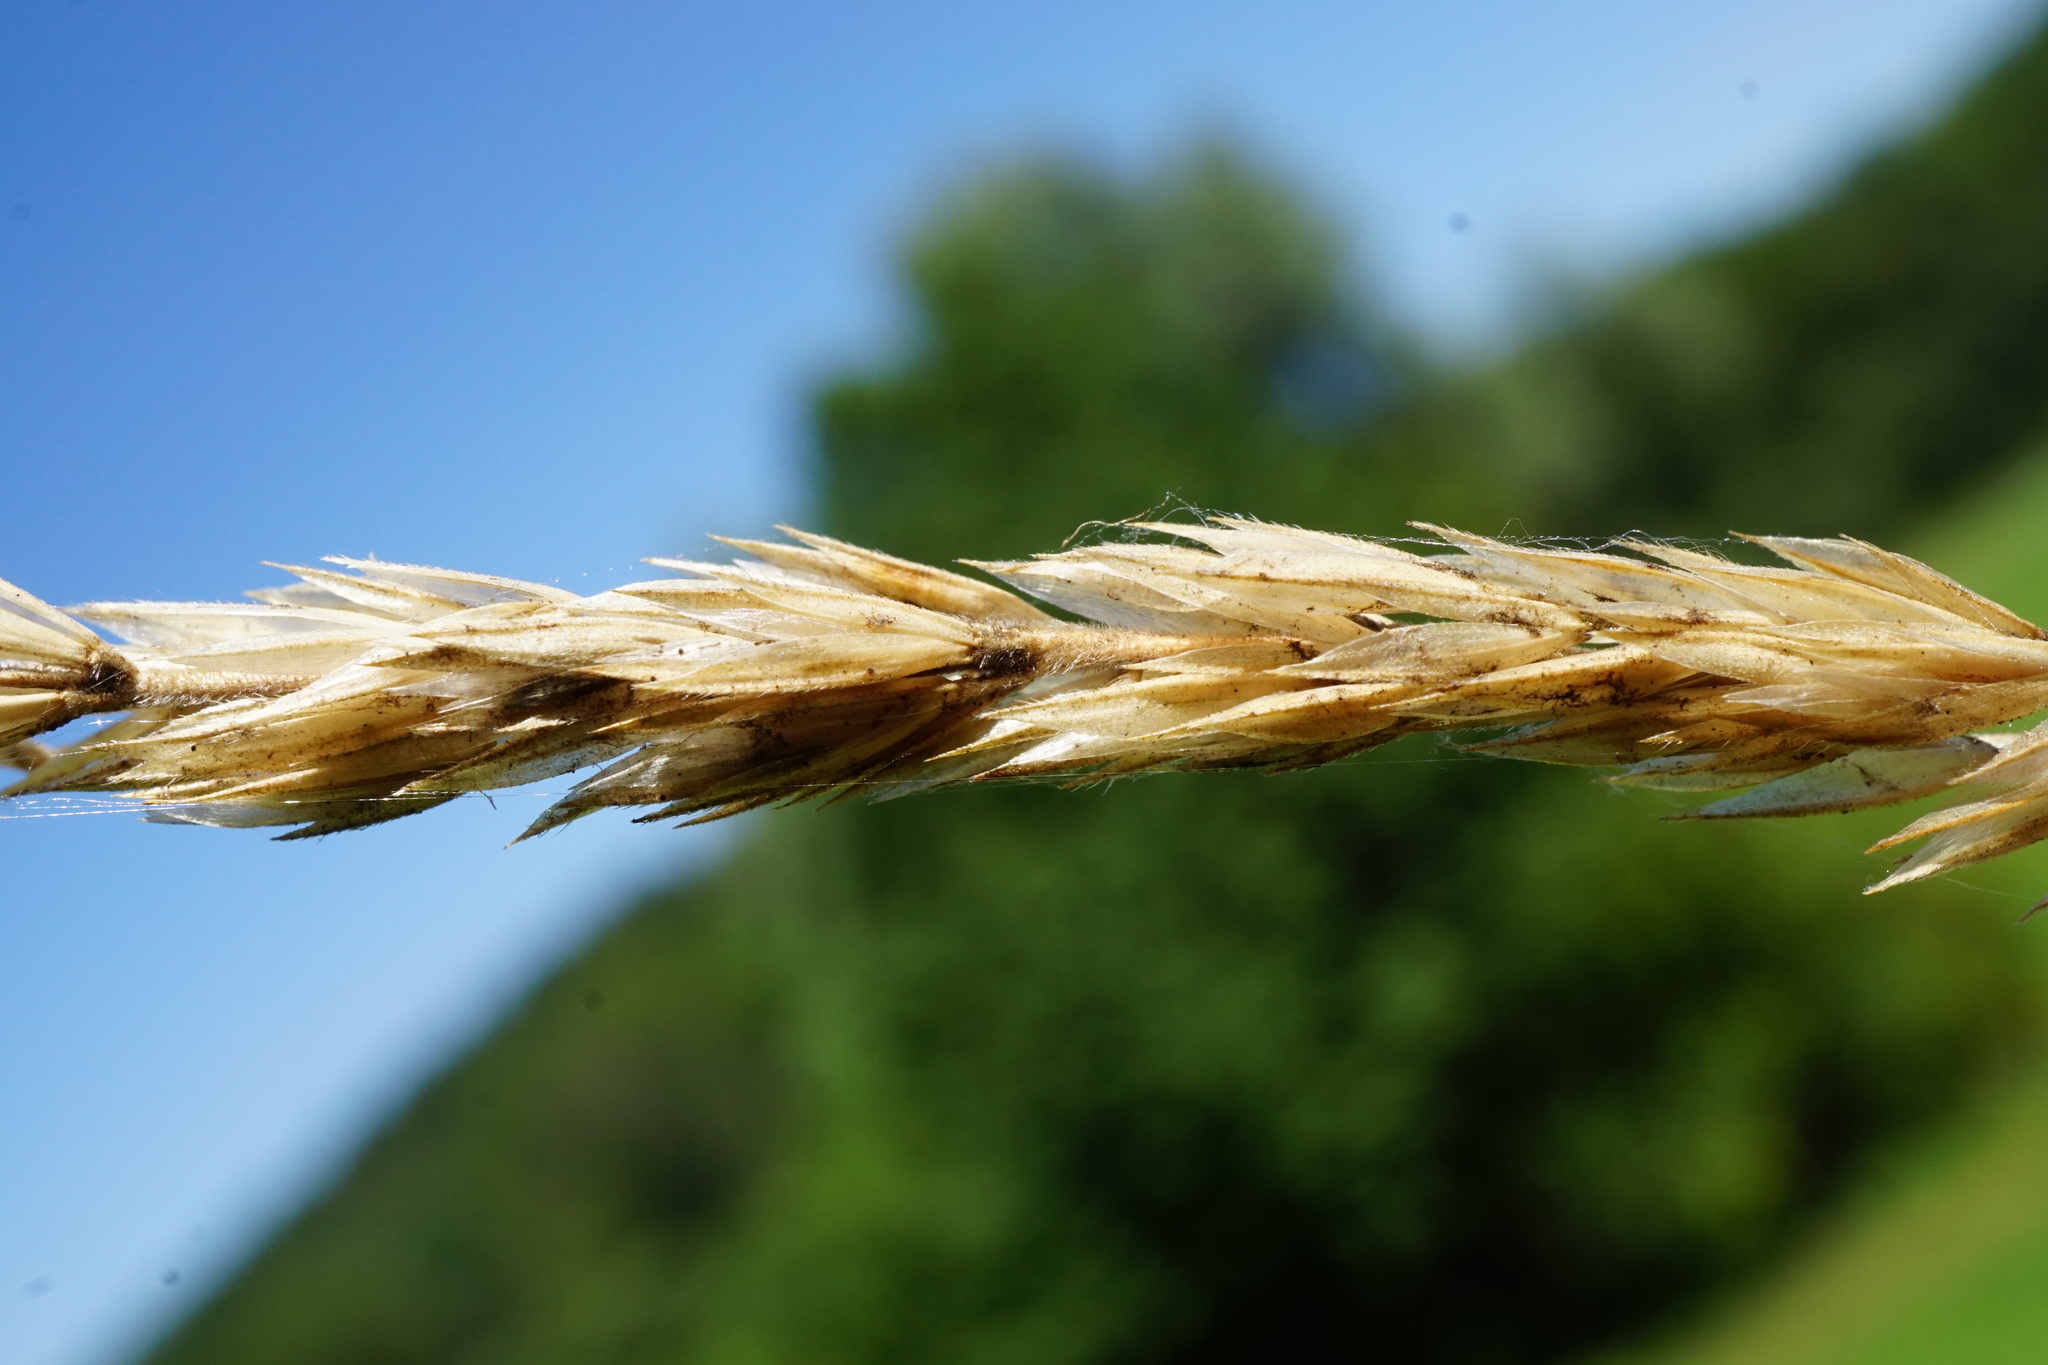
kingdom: Plantae
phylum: Tracheophyta
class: Liliopsida
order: Poales
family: Poaceae
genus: Koeleria
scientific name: Koeleria pyramidata
